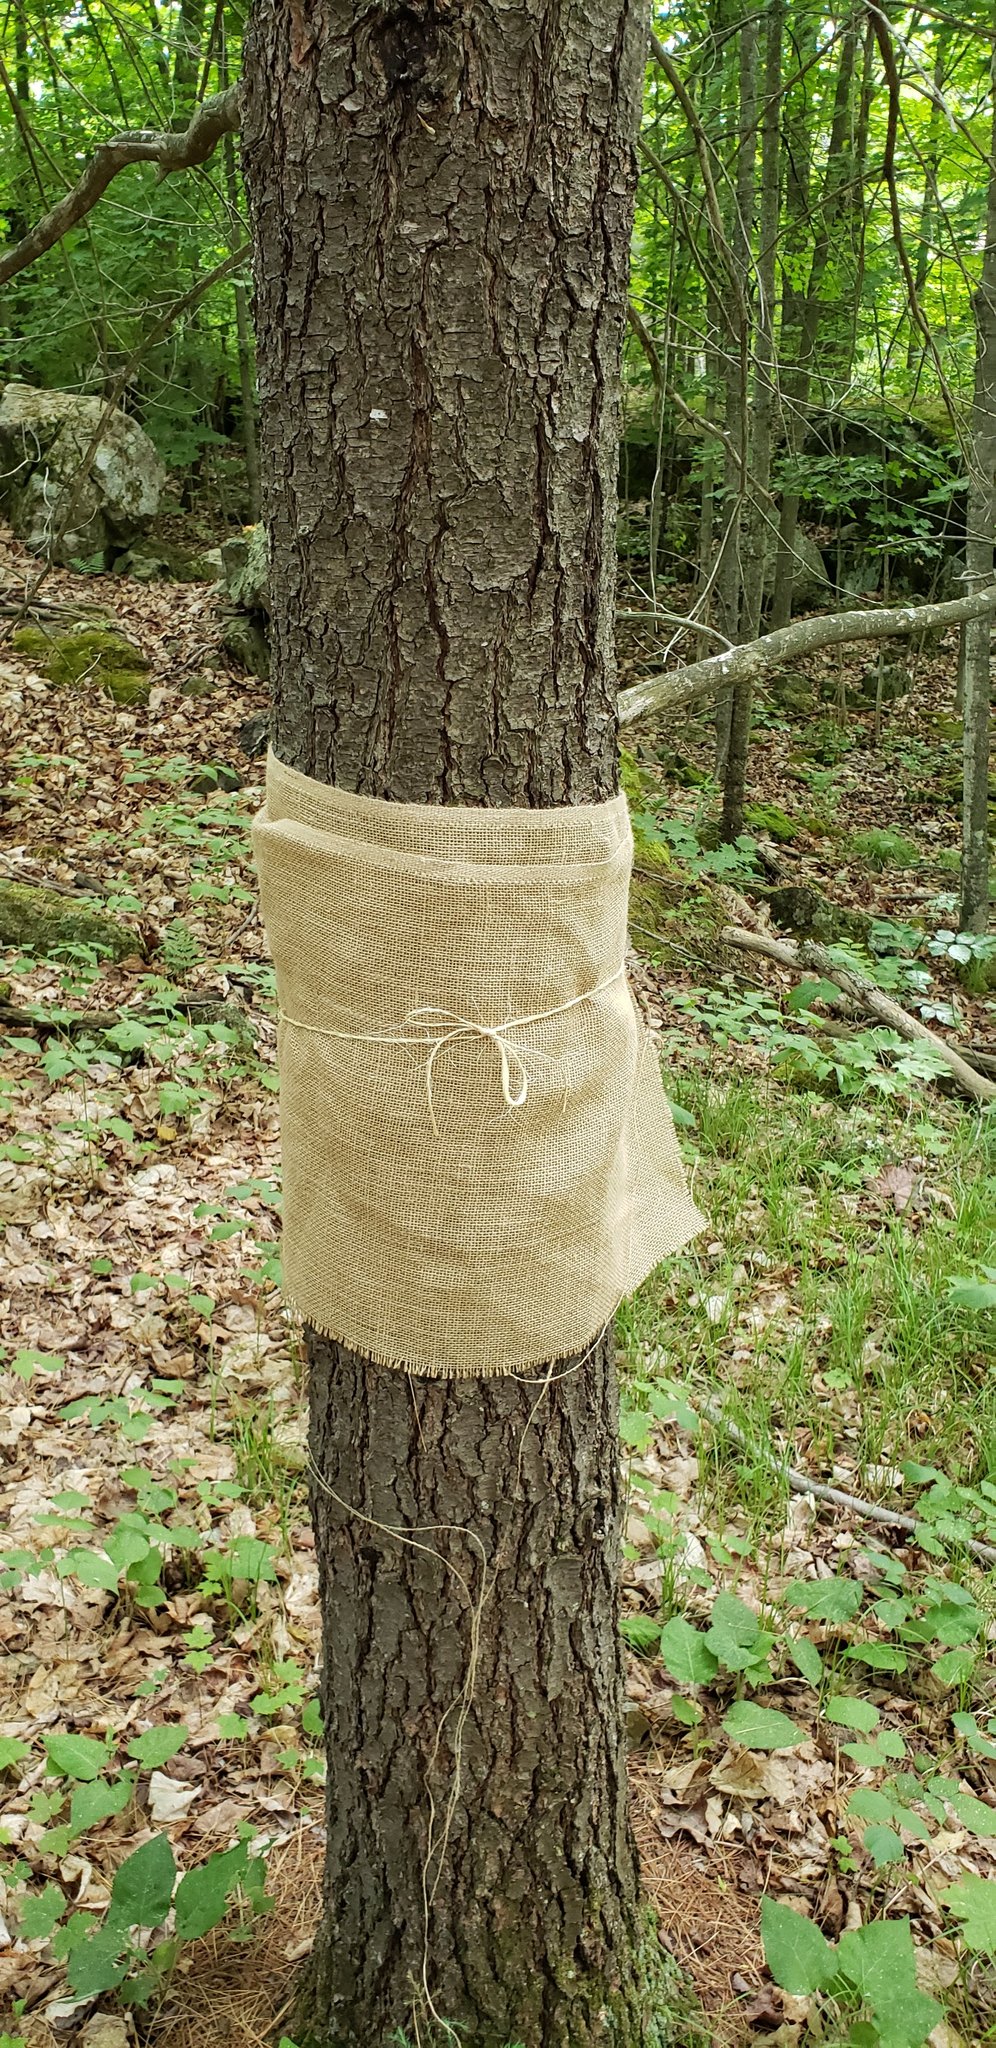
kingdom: Plantae
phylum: Tracheophyta
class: Pinopsida
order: Pinales
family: Pinaceae
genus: Pinus
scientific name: Pinus strobus
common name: Weymouth pine
